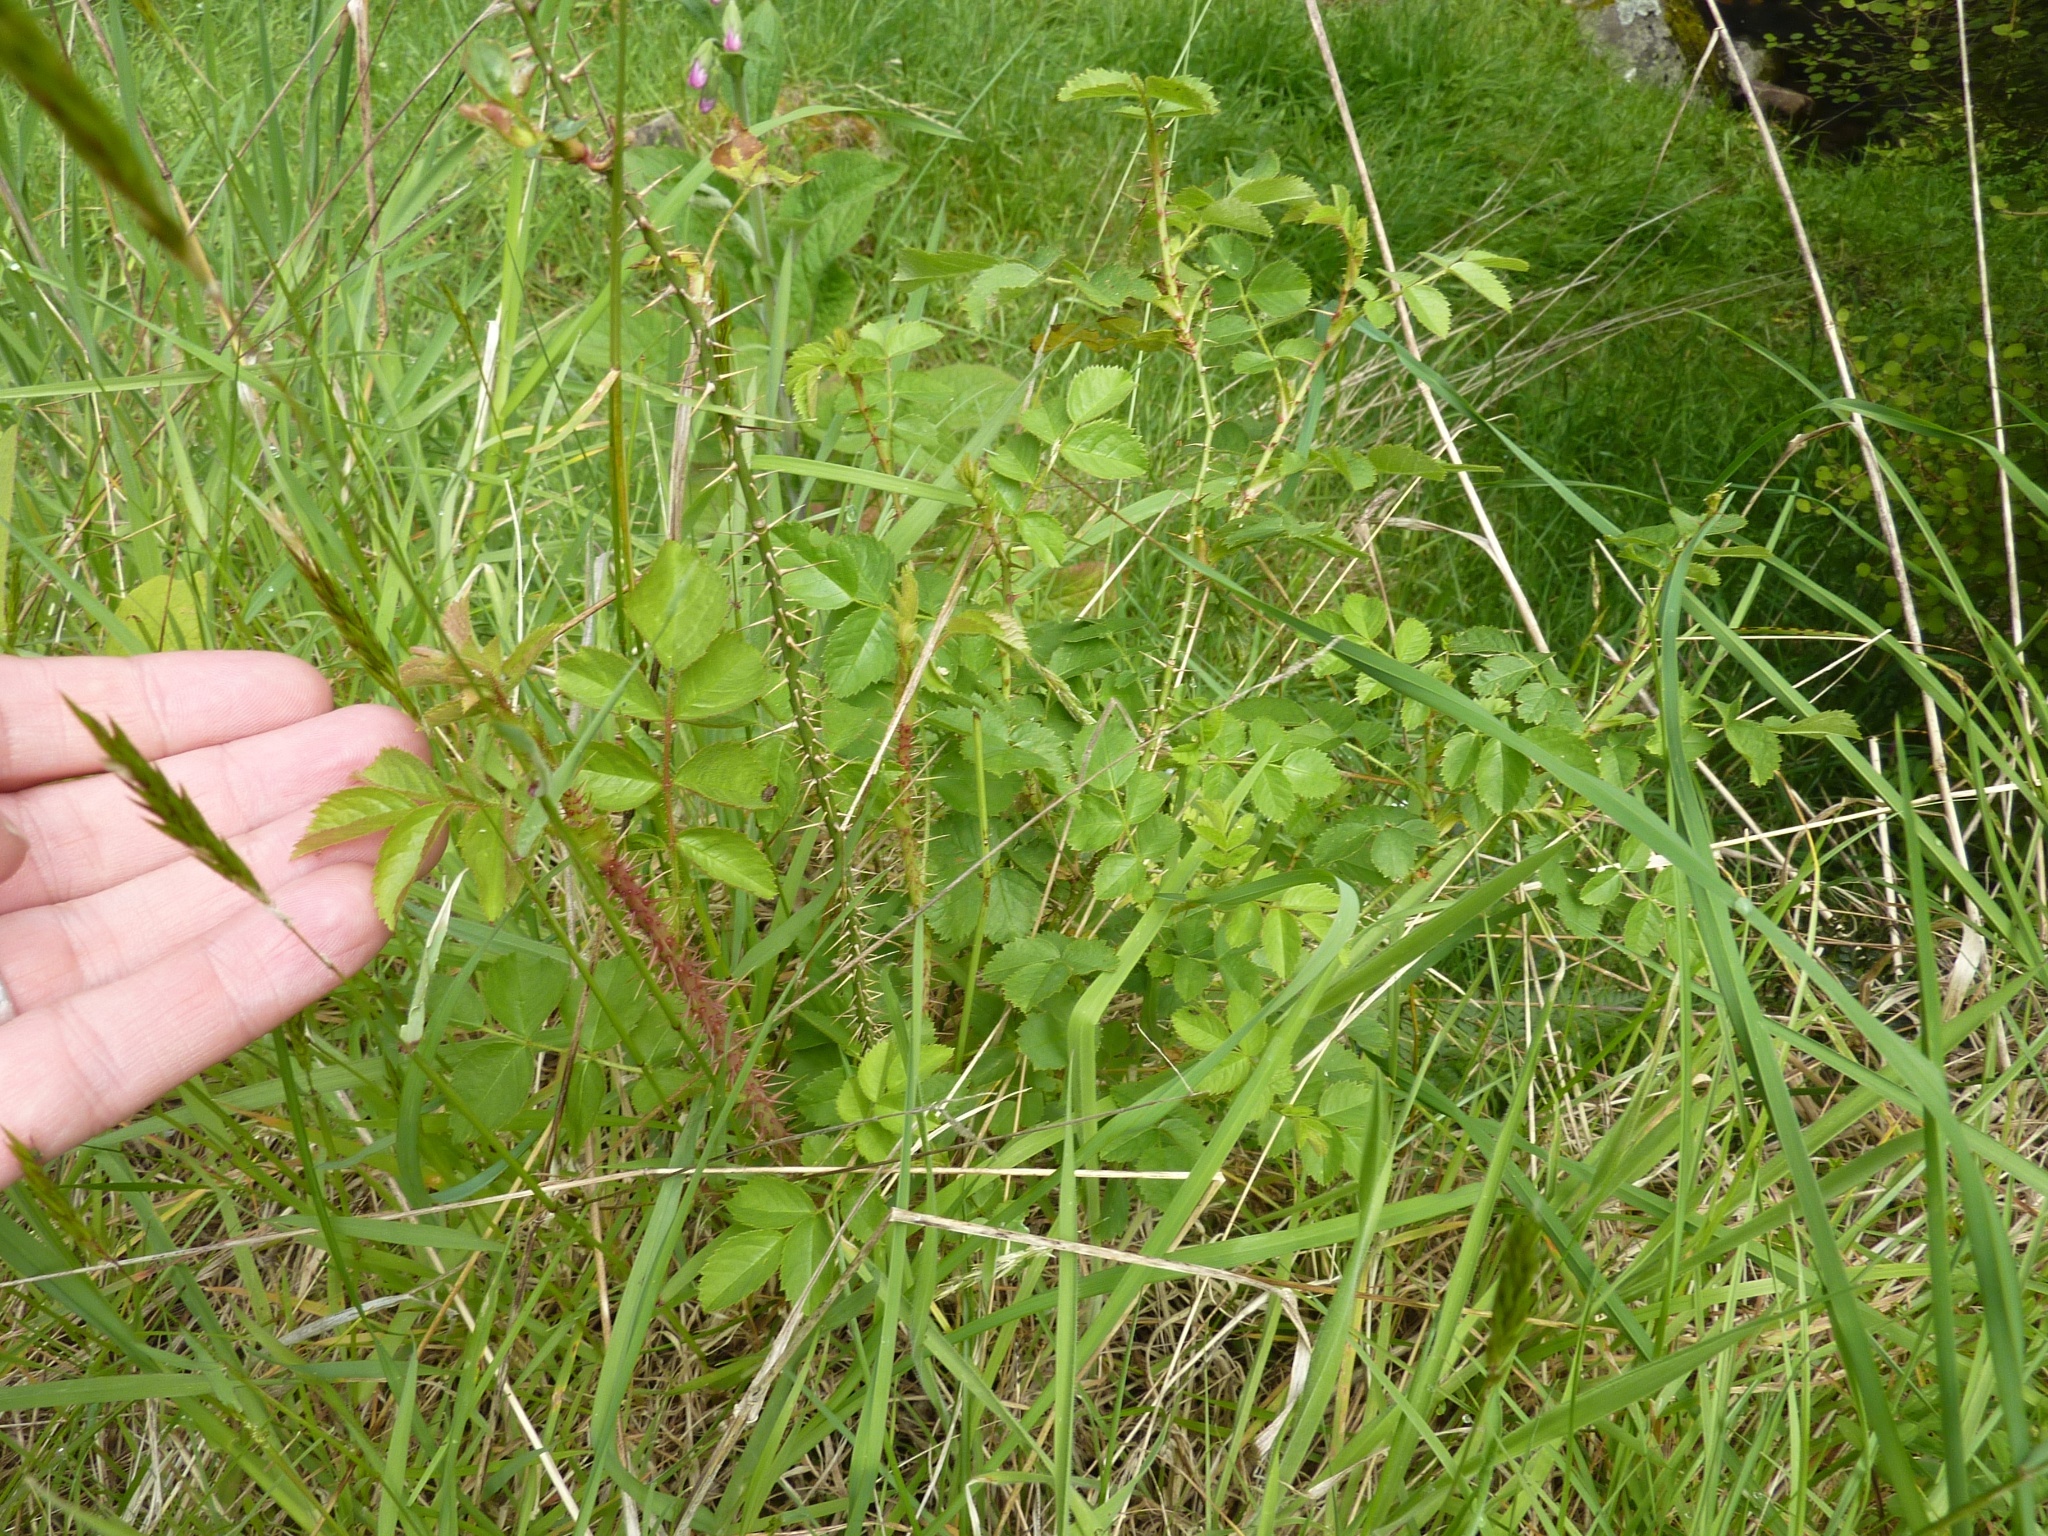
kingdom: Plantae
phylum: Tracheophyta
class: Magnoliopsida
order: Rosales
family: Rosaceae
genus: Rosa
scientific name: Rosa rubiginosa
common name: Sweet-briar
